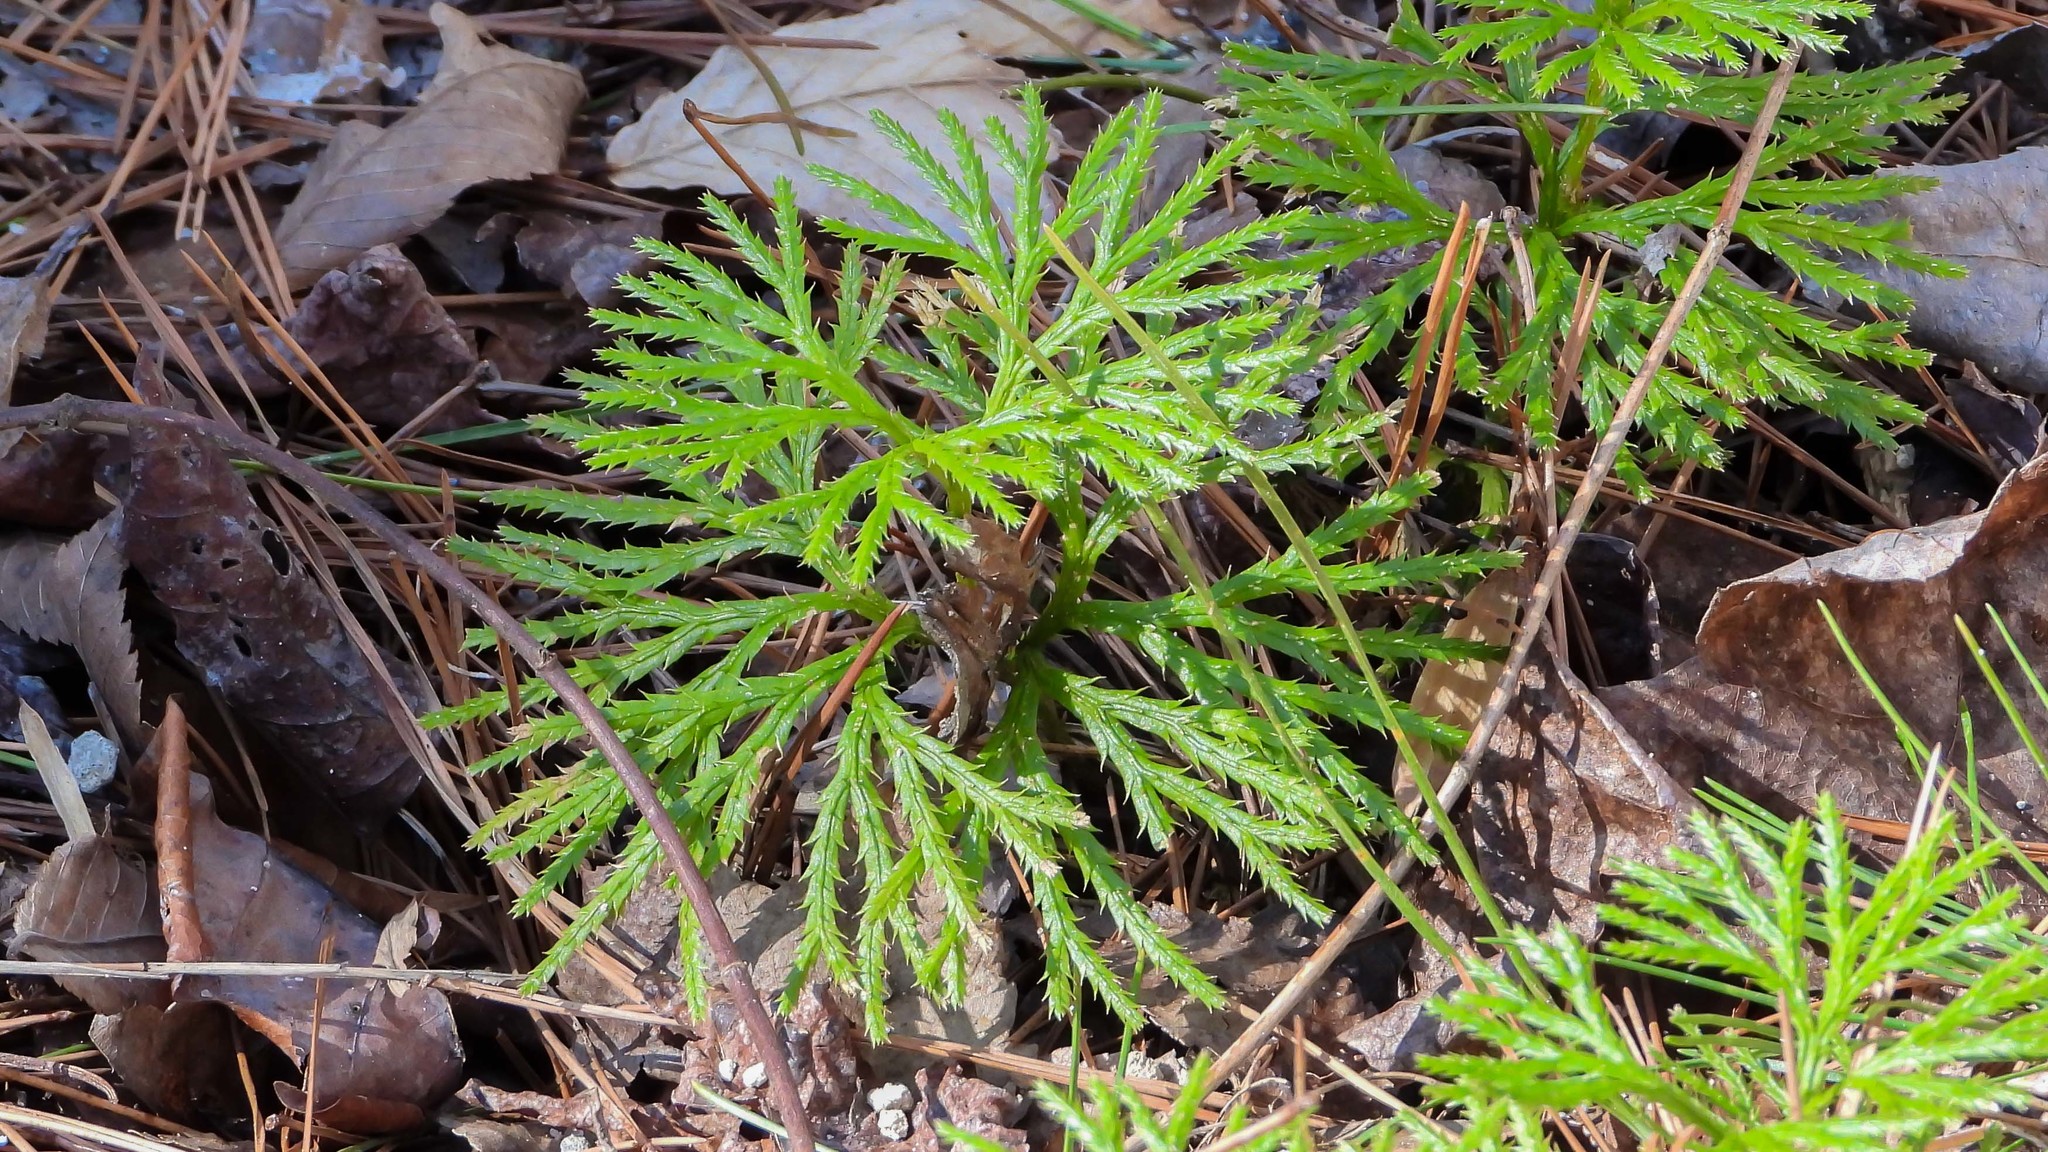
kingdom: Plantae
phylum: Tracheophyta
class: Lycopodiopsida
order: Lycopodiales
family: Lycopodiaceae
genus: Diphasiastrum
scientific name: Diphasiastrum digitatum
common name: Southern running-pine
